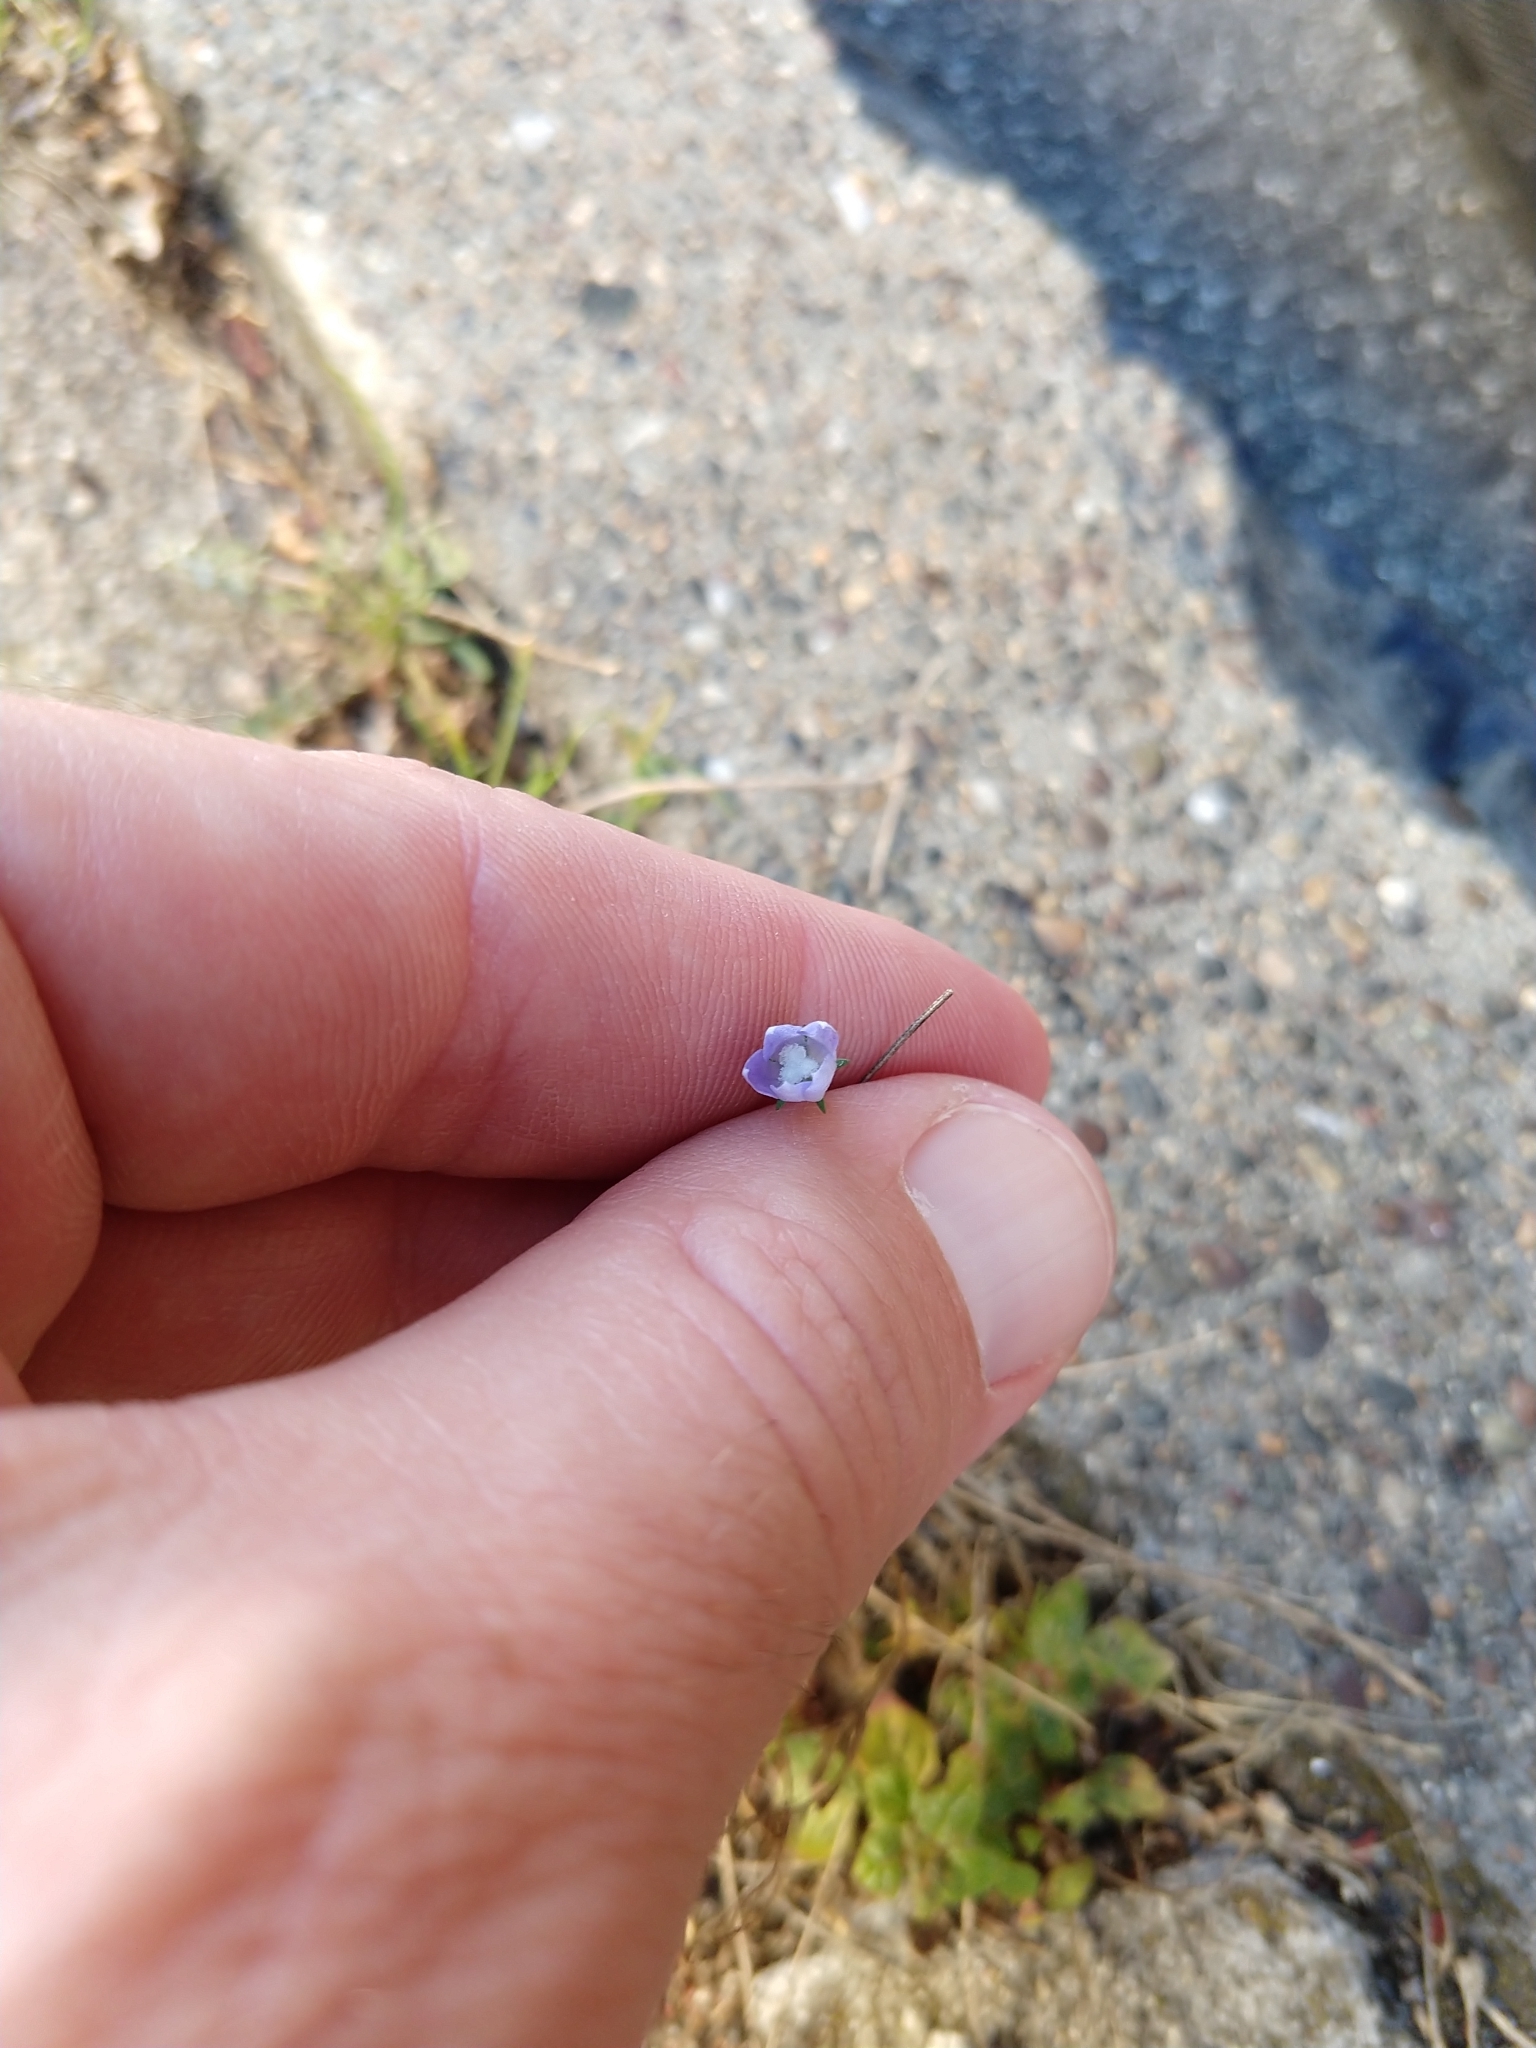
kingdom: Plantae
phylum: Tracheophyta
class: Magnoliopsida
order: Asterales
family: Campanulaceae
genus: Wahlenbergia
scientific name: Wahlenbergia marginata
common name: Southern rockbell
